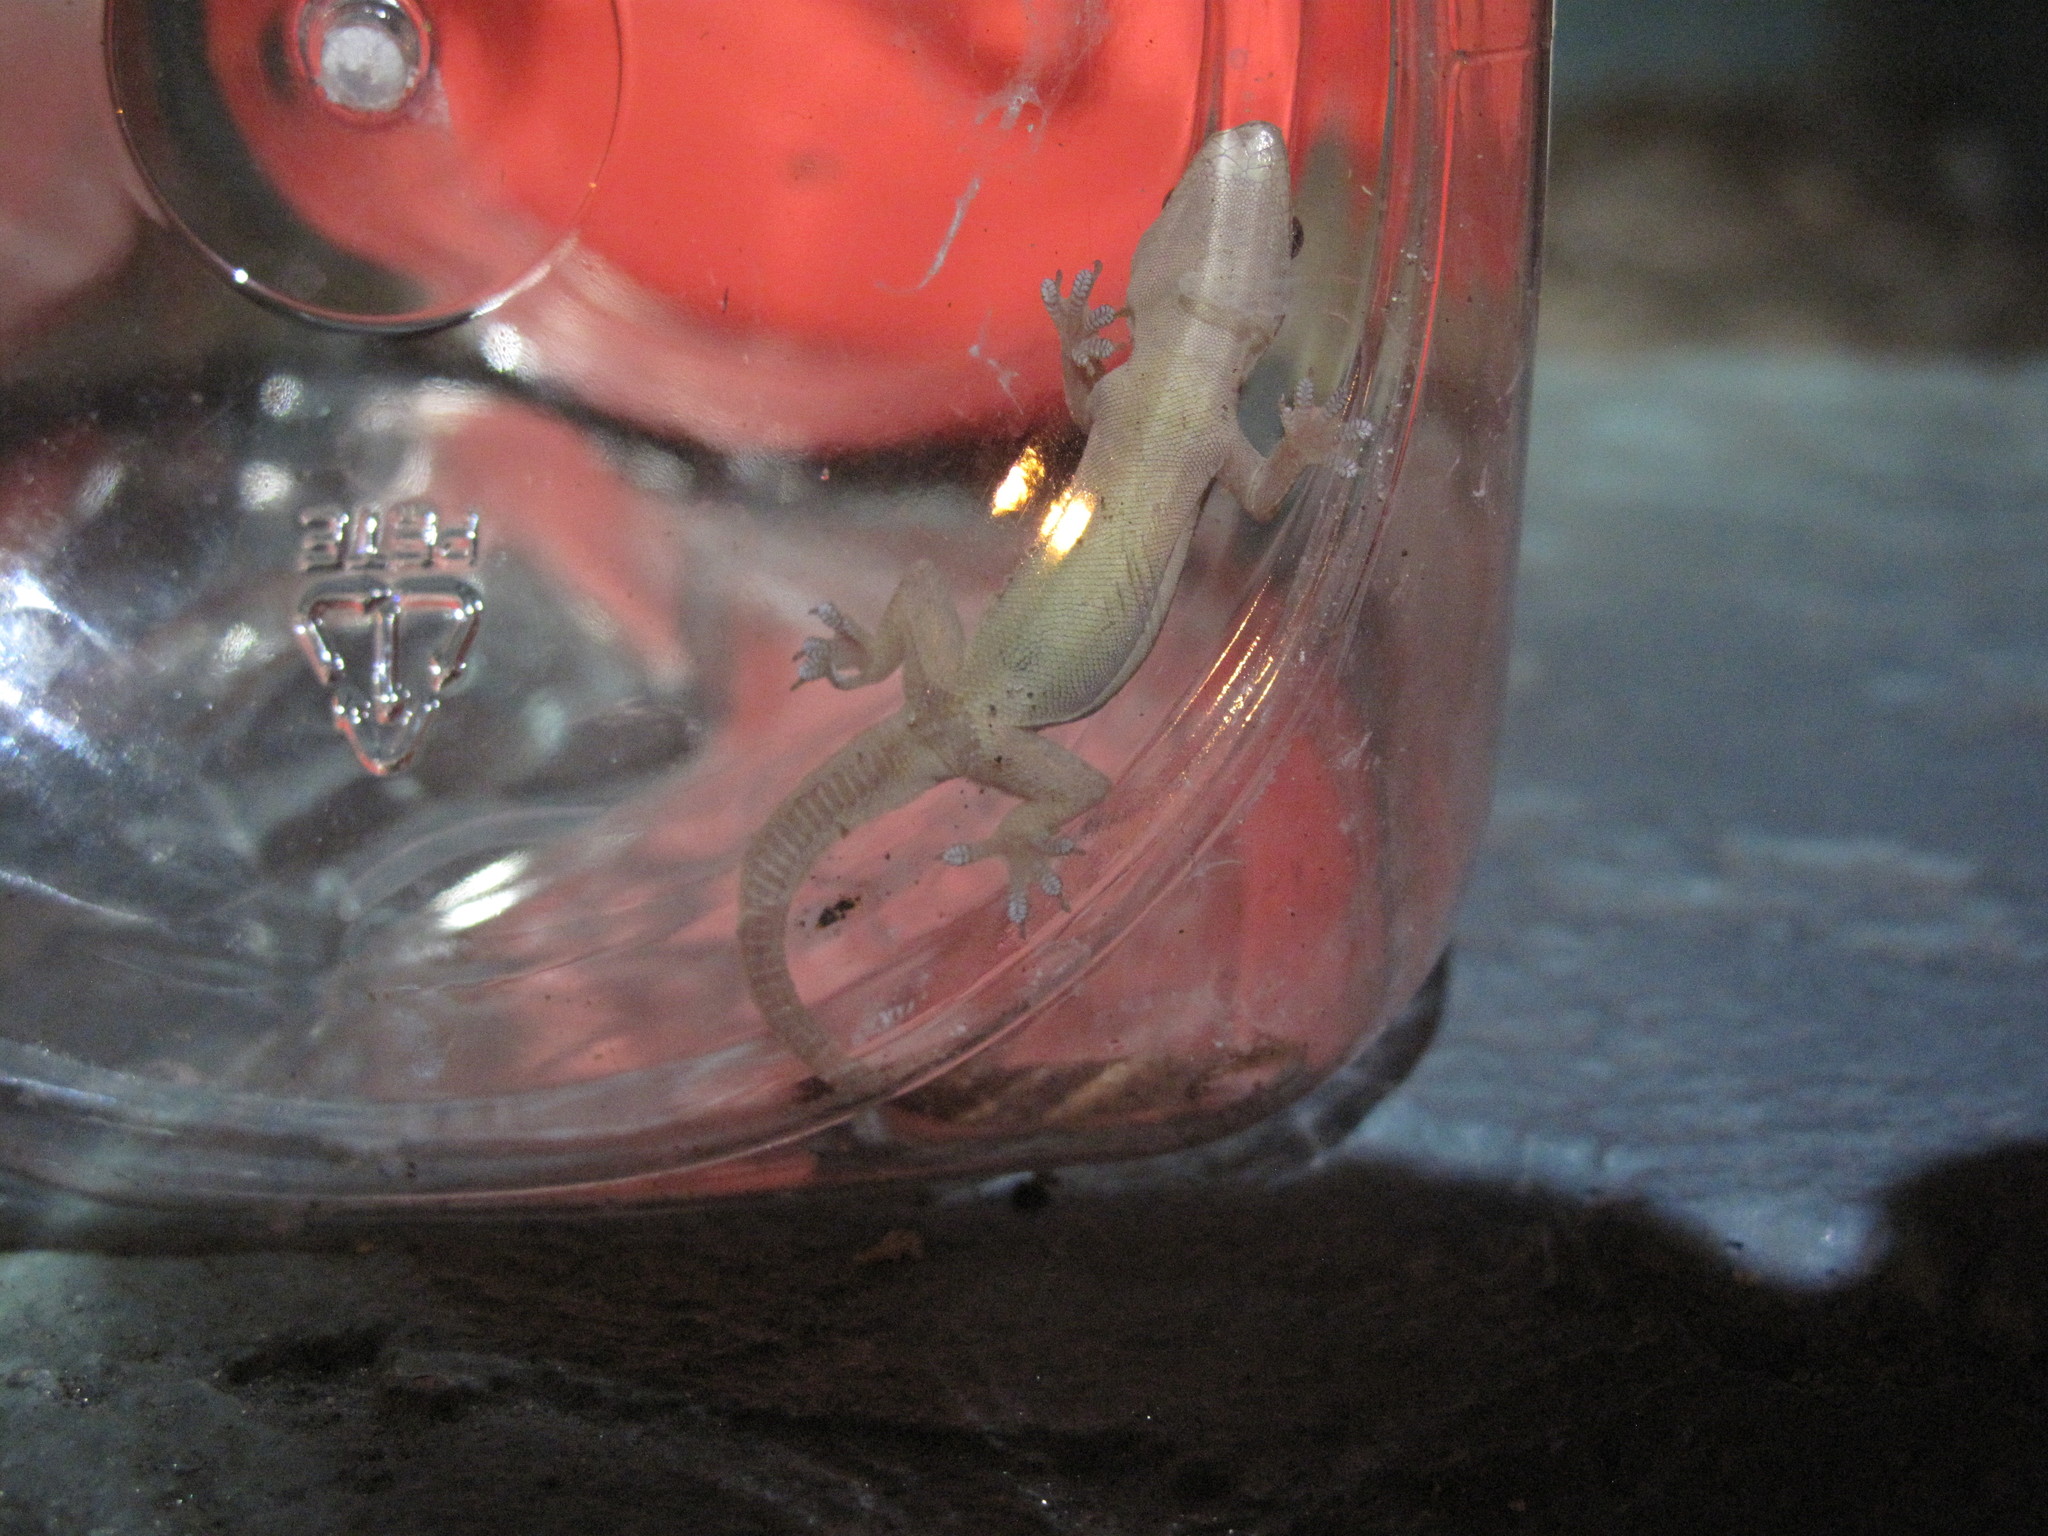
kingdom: Animalia
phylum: Chordata
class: Squamata
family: Gekkonidae
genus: Hemidactylus
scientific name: Hemidactylus platyurus
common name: Flat-tailed house gecko
